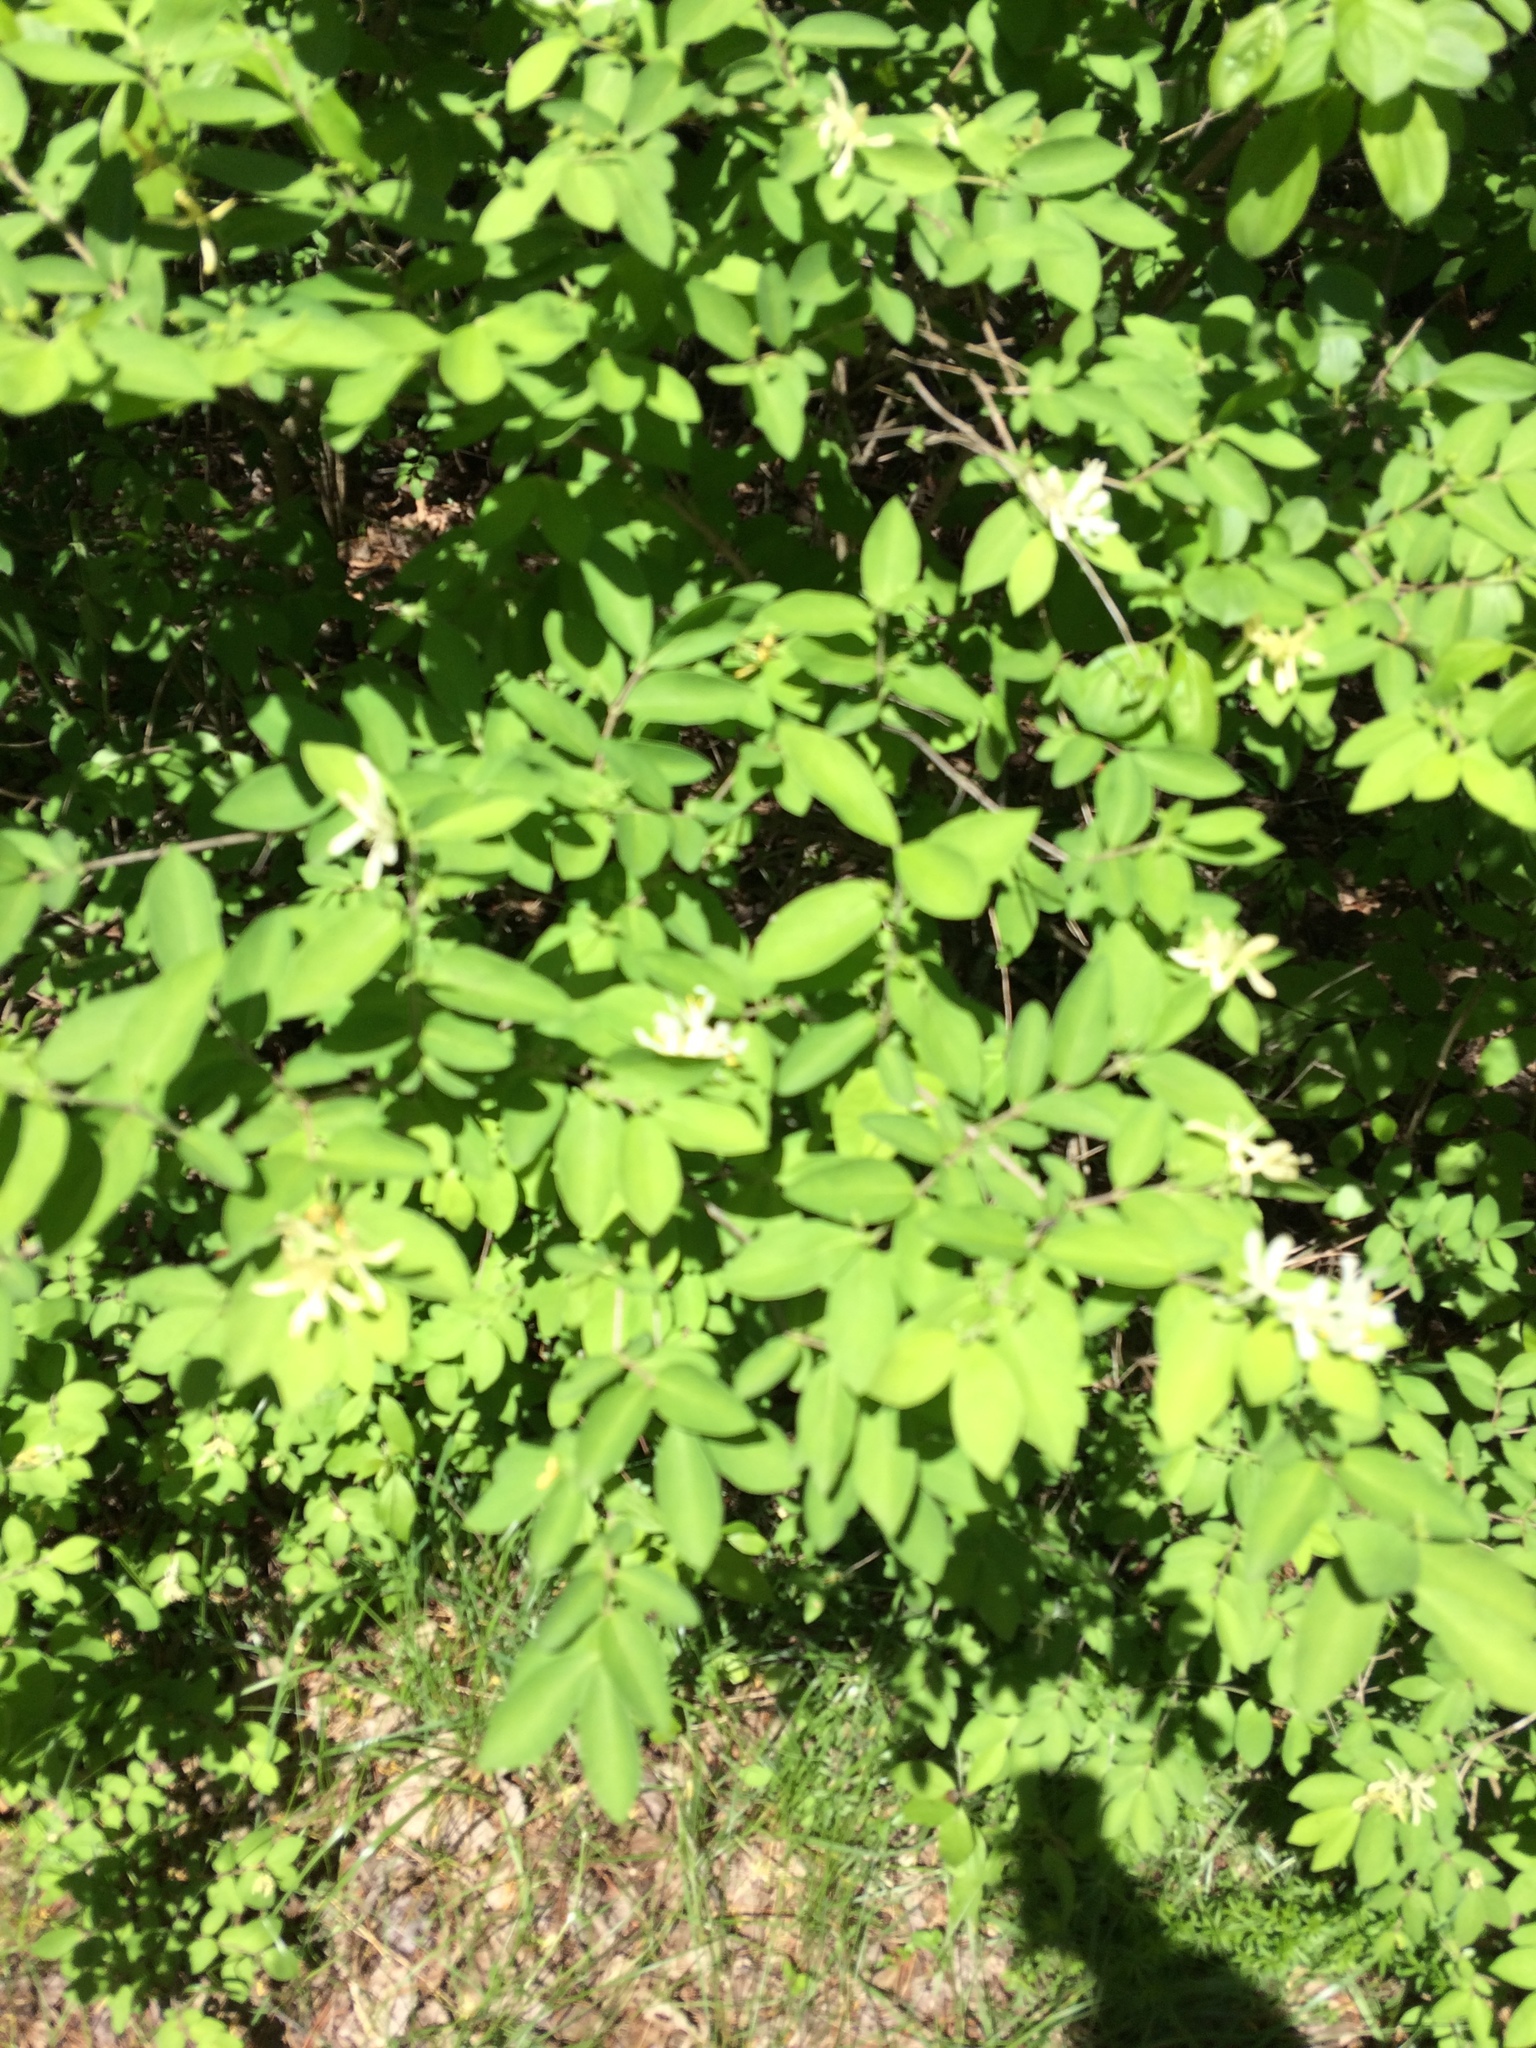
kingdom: Plantae
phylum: Tracheophyta
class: Magnoliopsida
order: Dipsacales
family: Caprifoliaceae
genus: Lonicera
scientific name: Lonicera morrowii
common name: Morrow's honeysuckle
